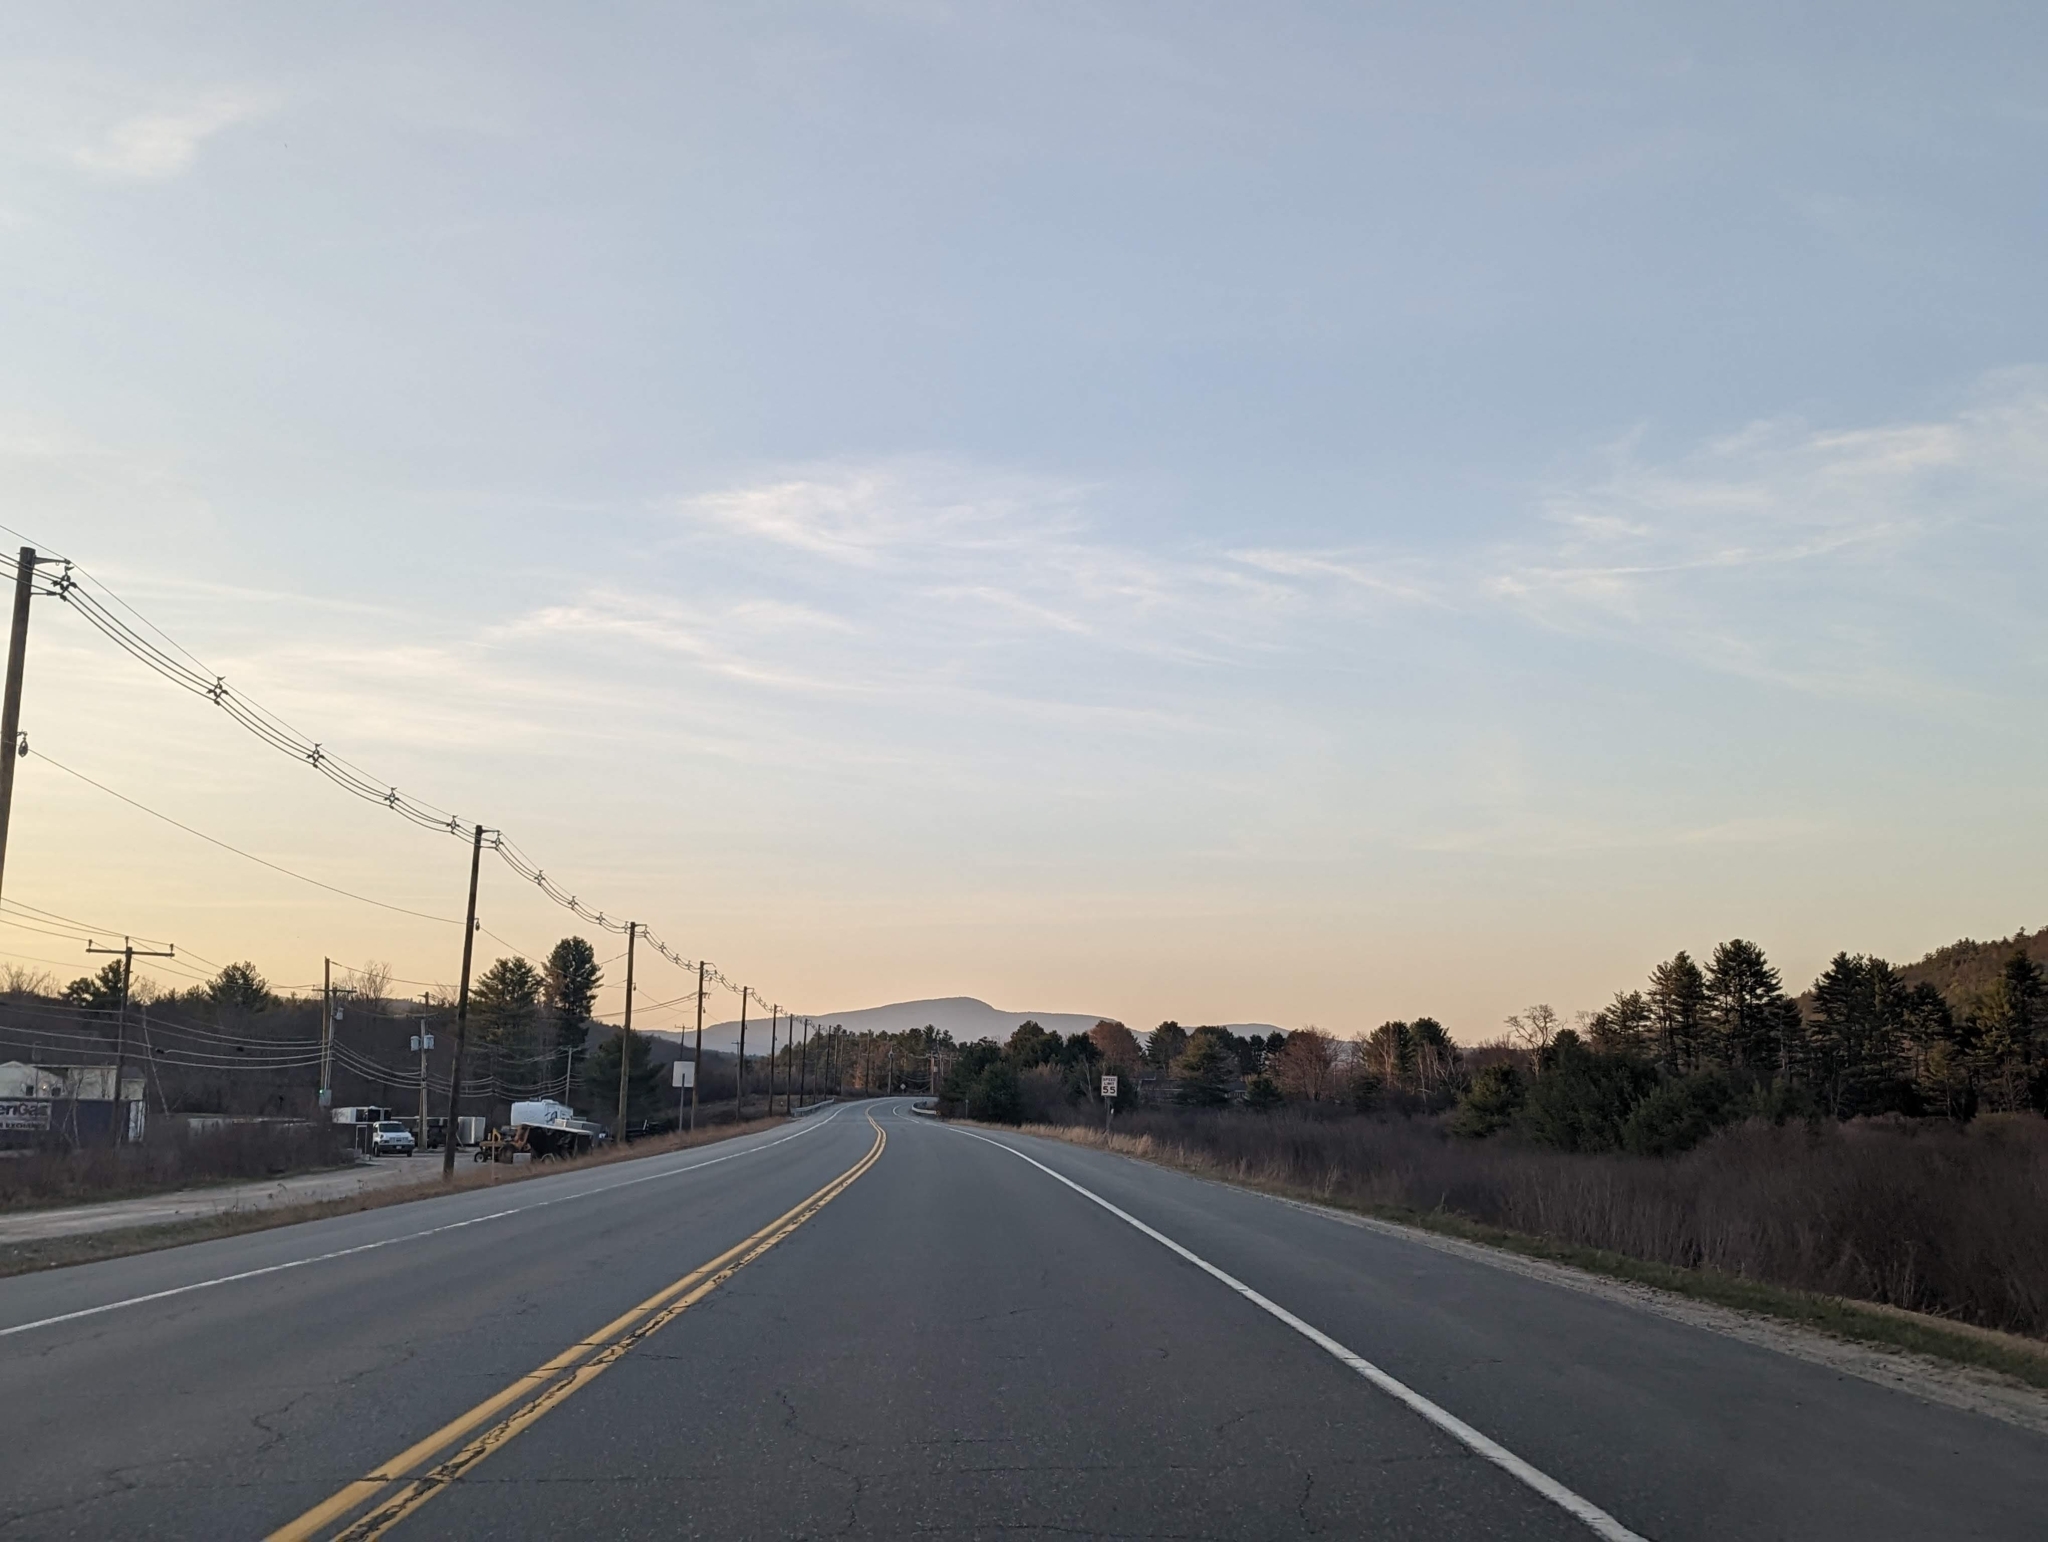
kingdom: Plantae
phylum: Tracheophyta
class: Pinopsida
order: Pinales
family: Pinaceae
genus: Pinus
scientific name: Pinus strobus
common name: Weymouth pine
